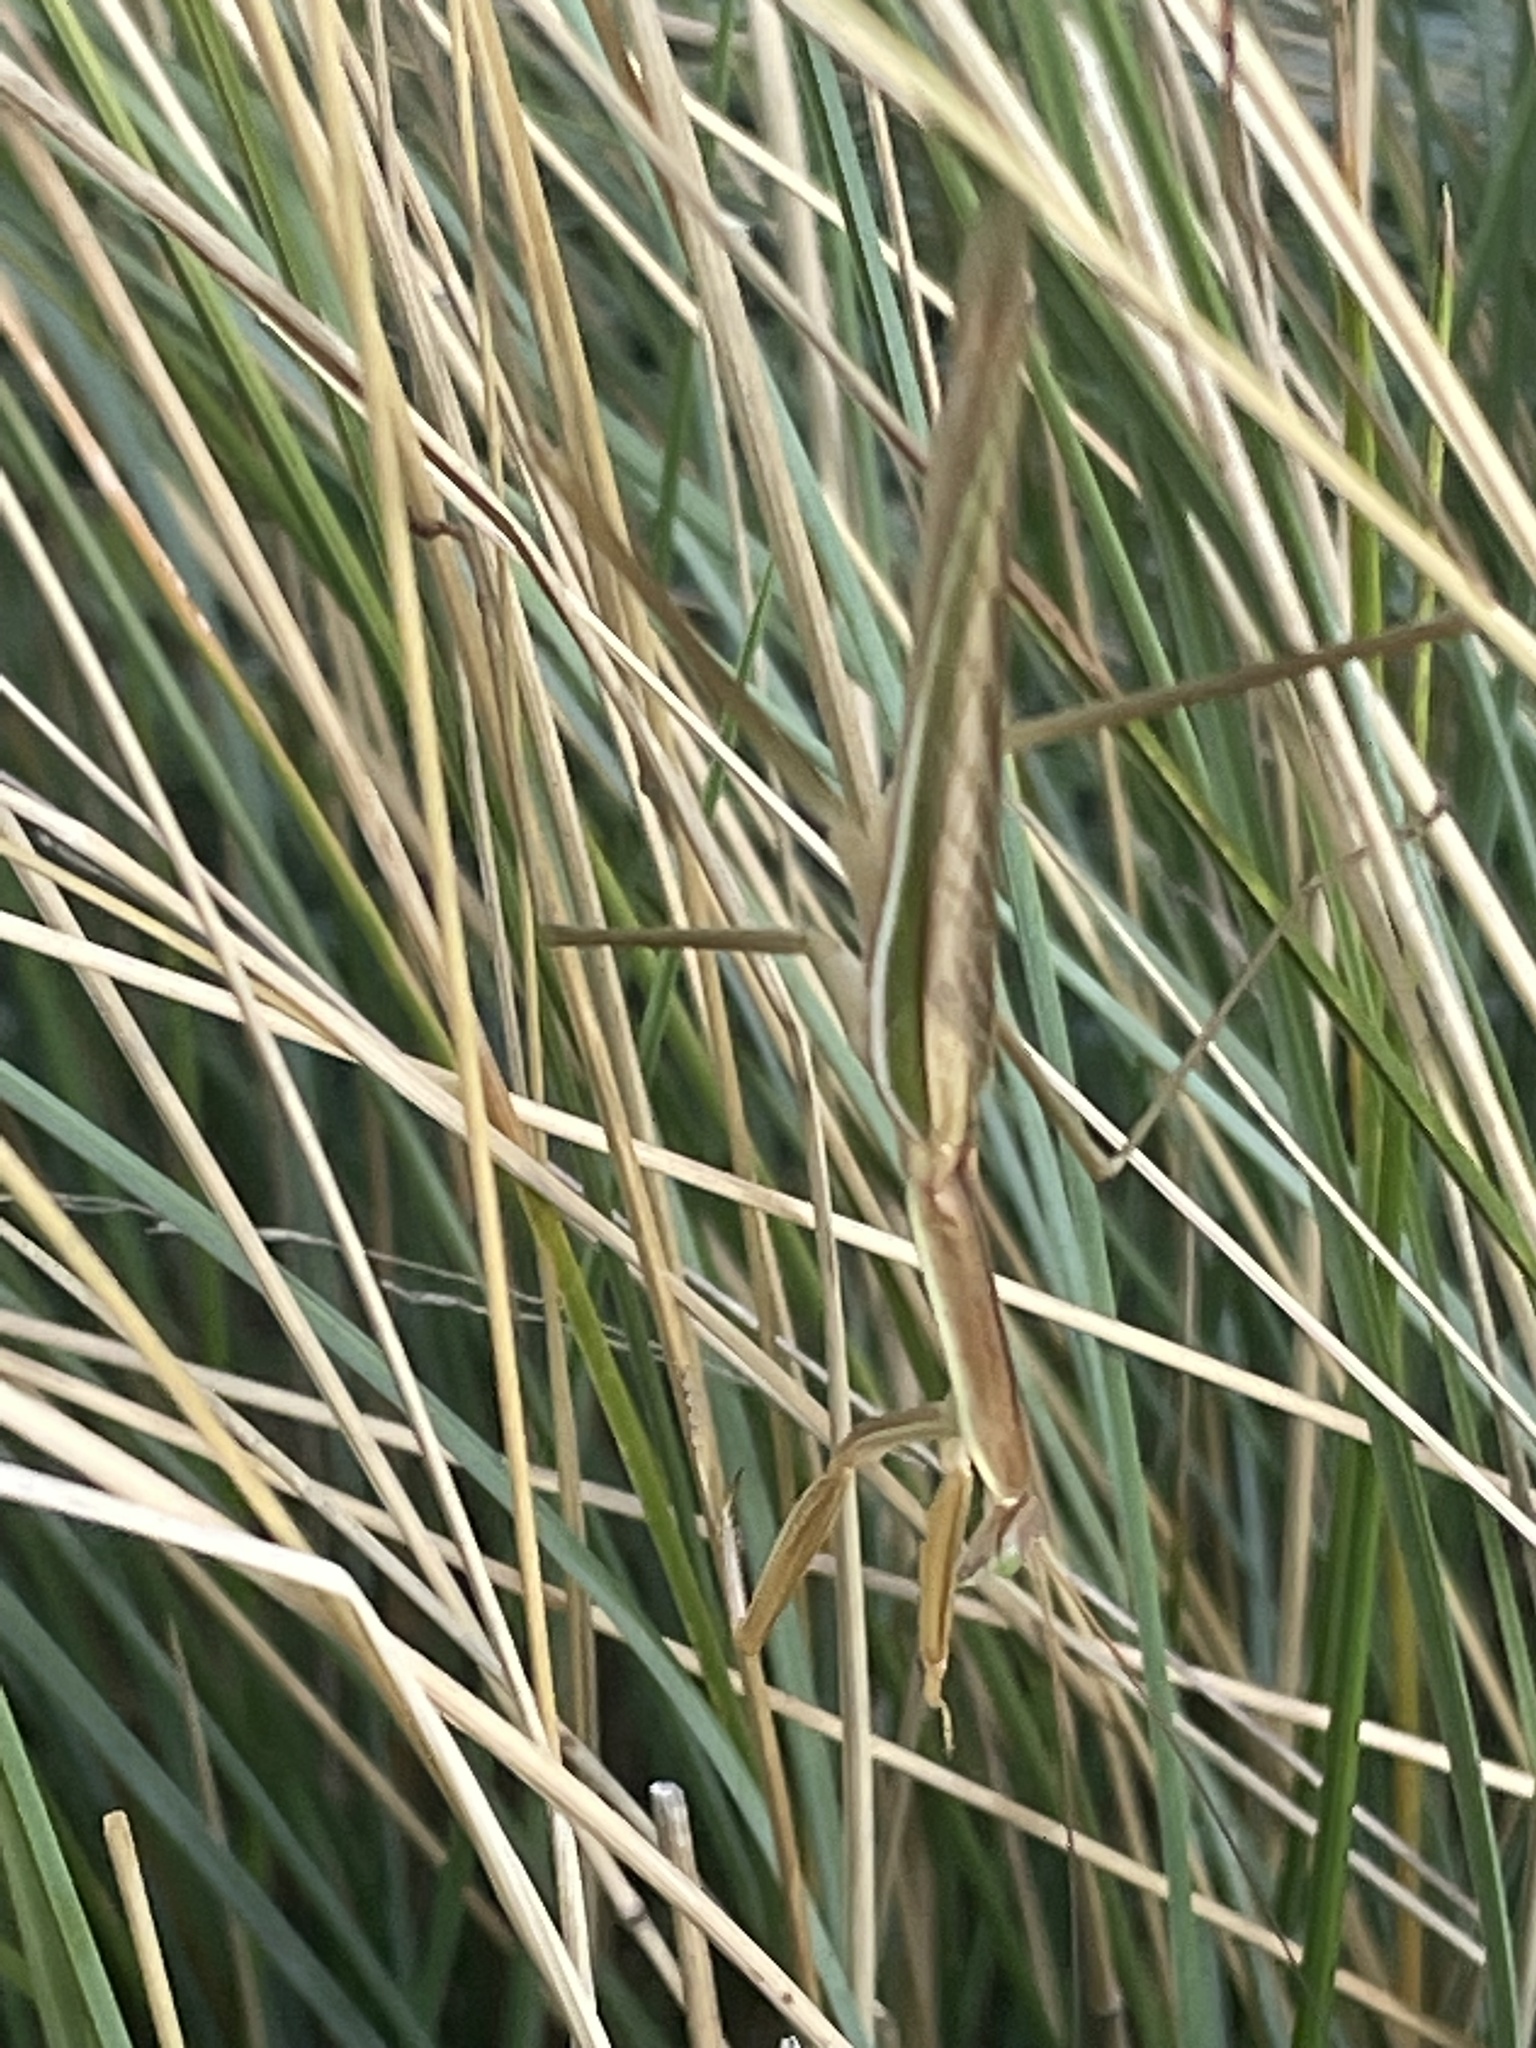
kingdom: Animalia
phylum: Arthropoda
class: Insecta
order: Mantodea
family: Mantidae
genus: Tenodera
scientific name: Tenodera australasiae
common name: Purple-winged mantis
